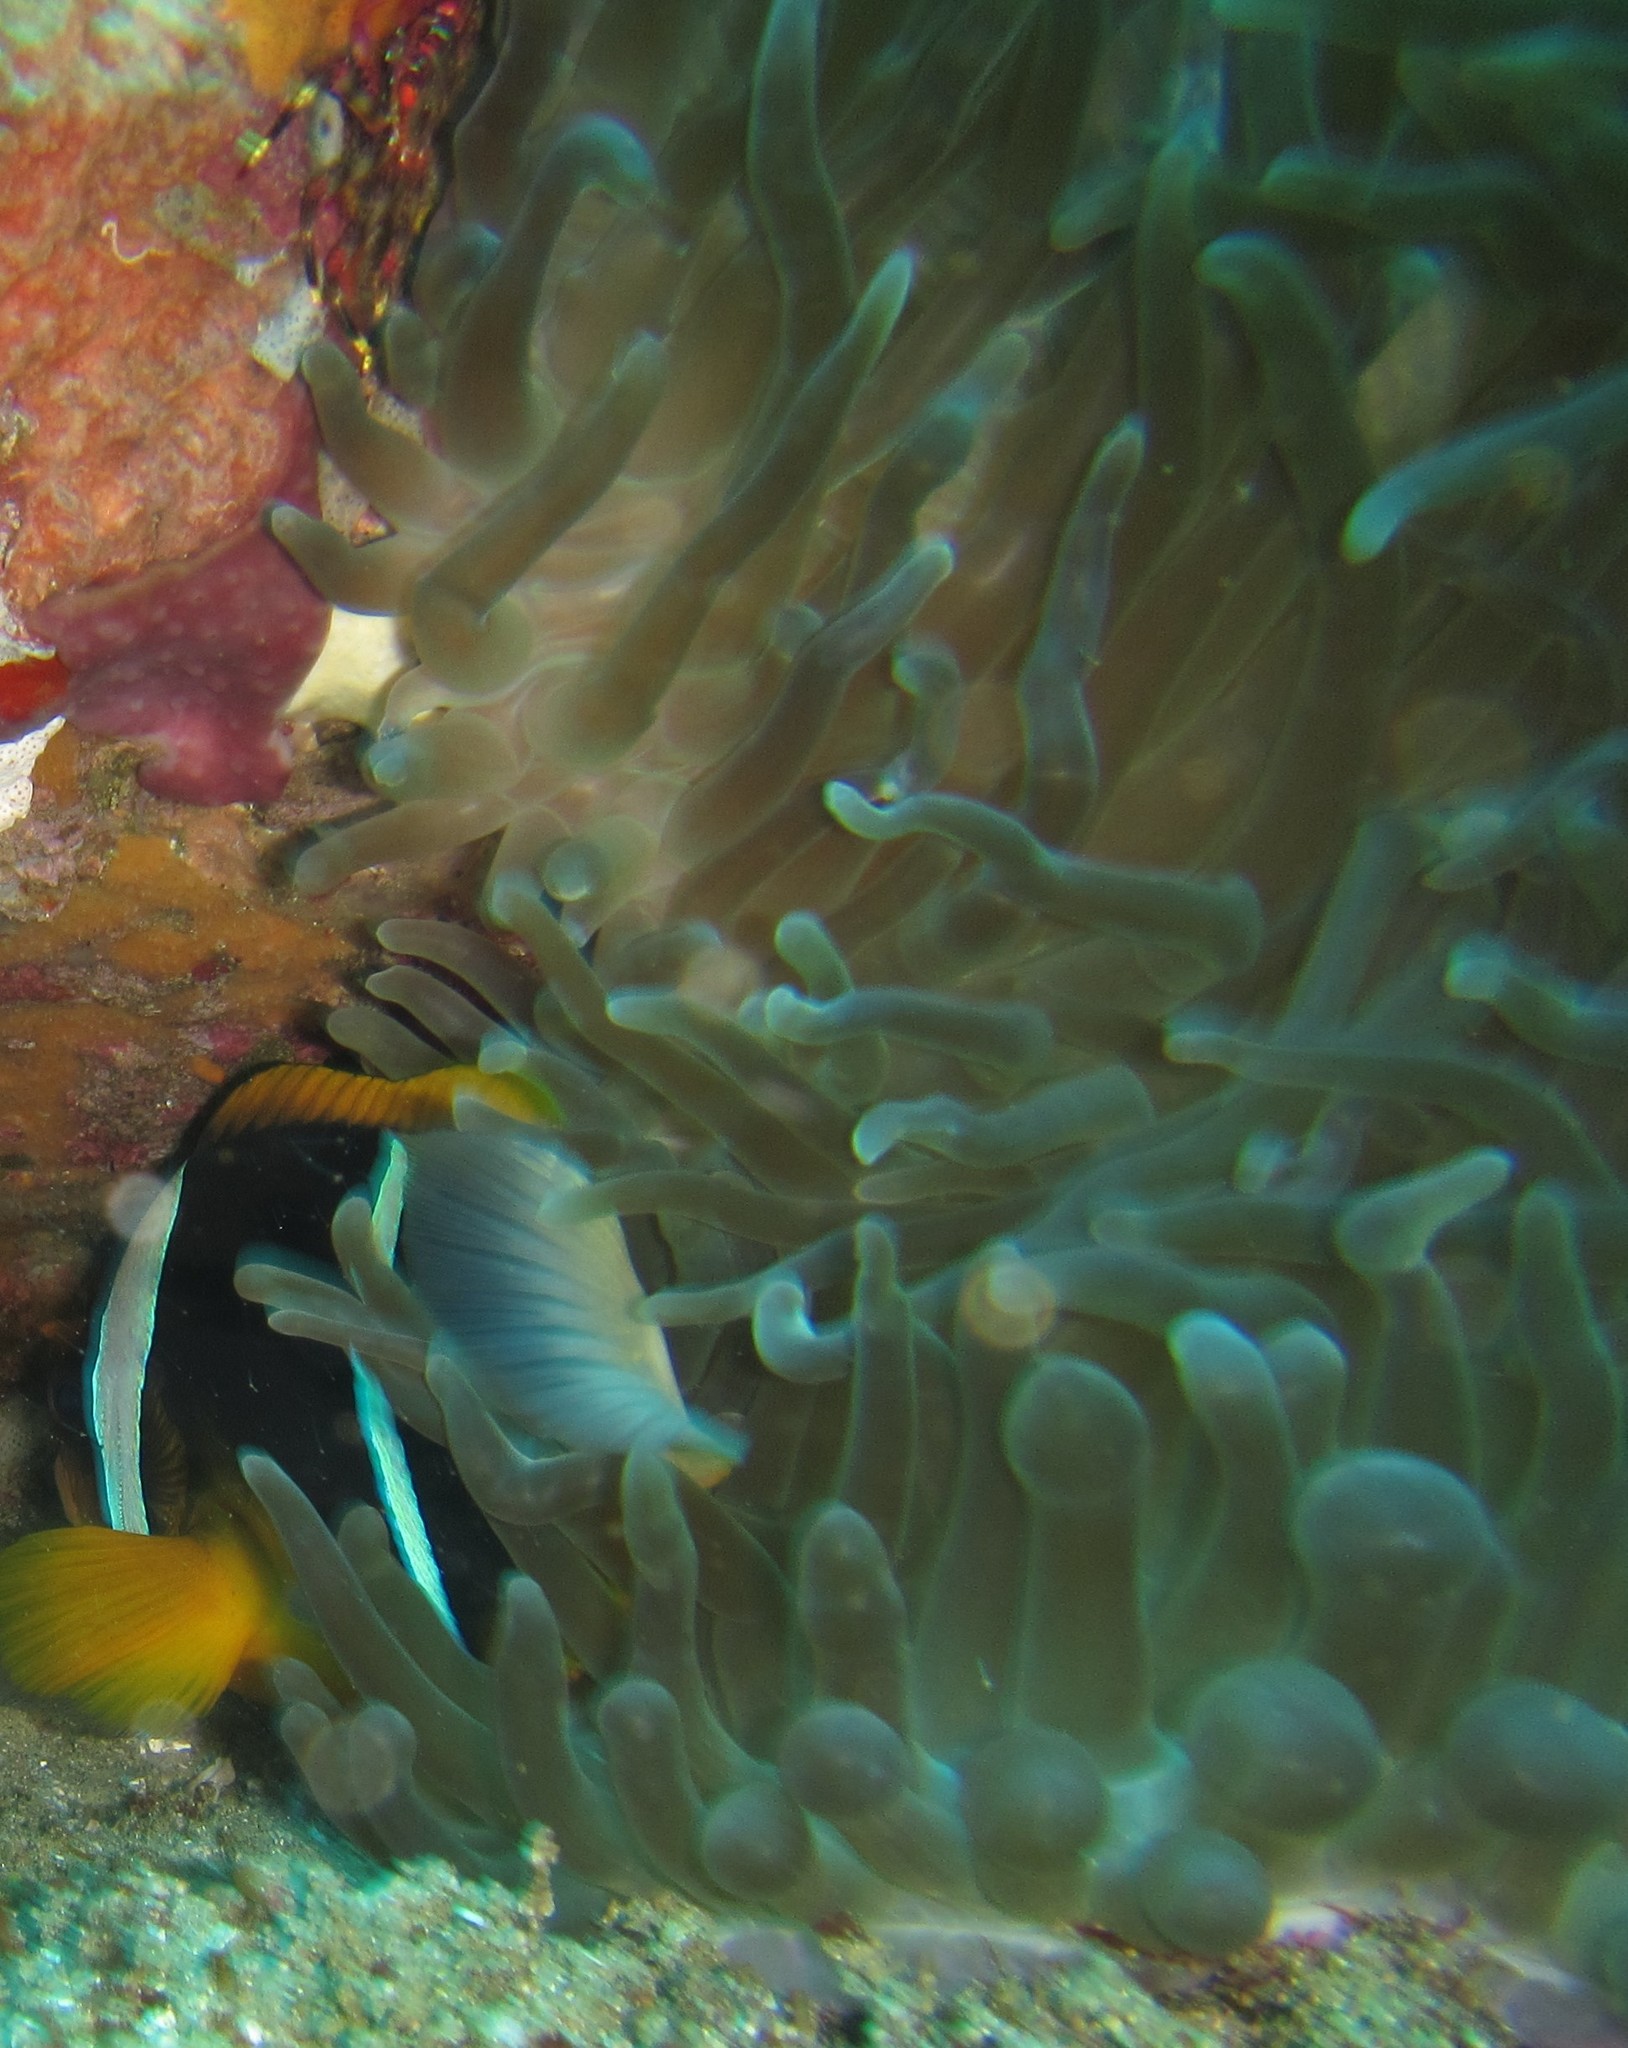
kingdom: Animalia
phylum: Cnidaria
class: Anthozoa
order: Actiniaria
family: Actiniidae
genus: Entacmaea
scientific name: Entacmaea quadricolor
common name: Bulb tentacle sea anemone
